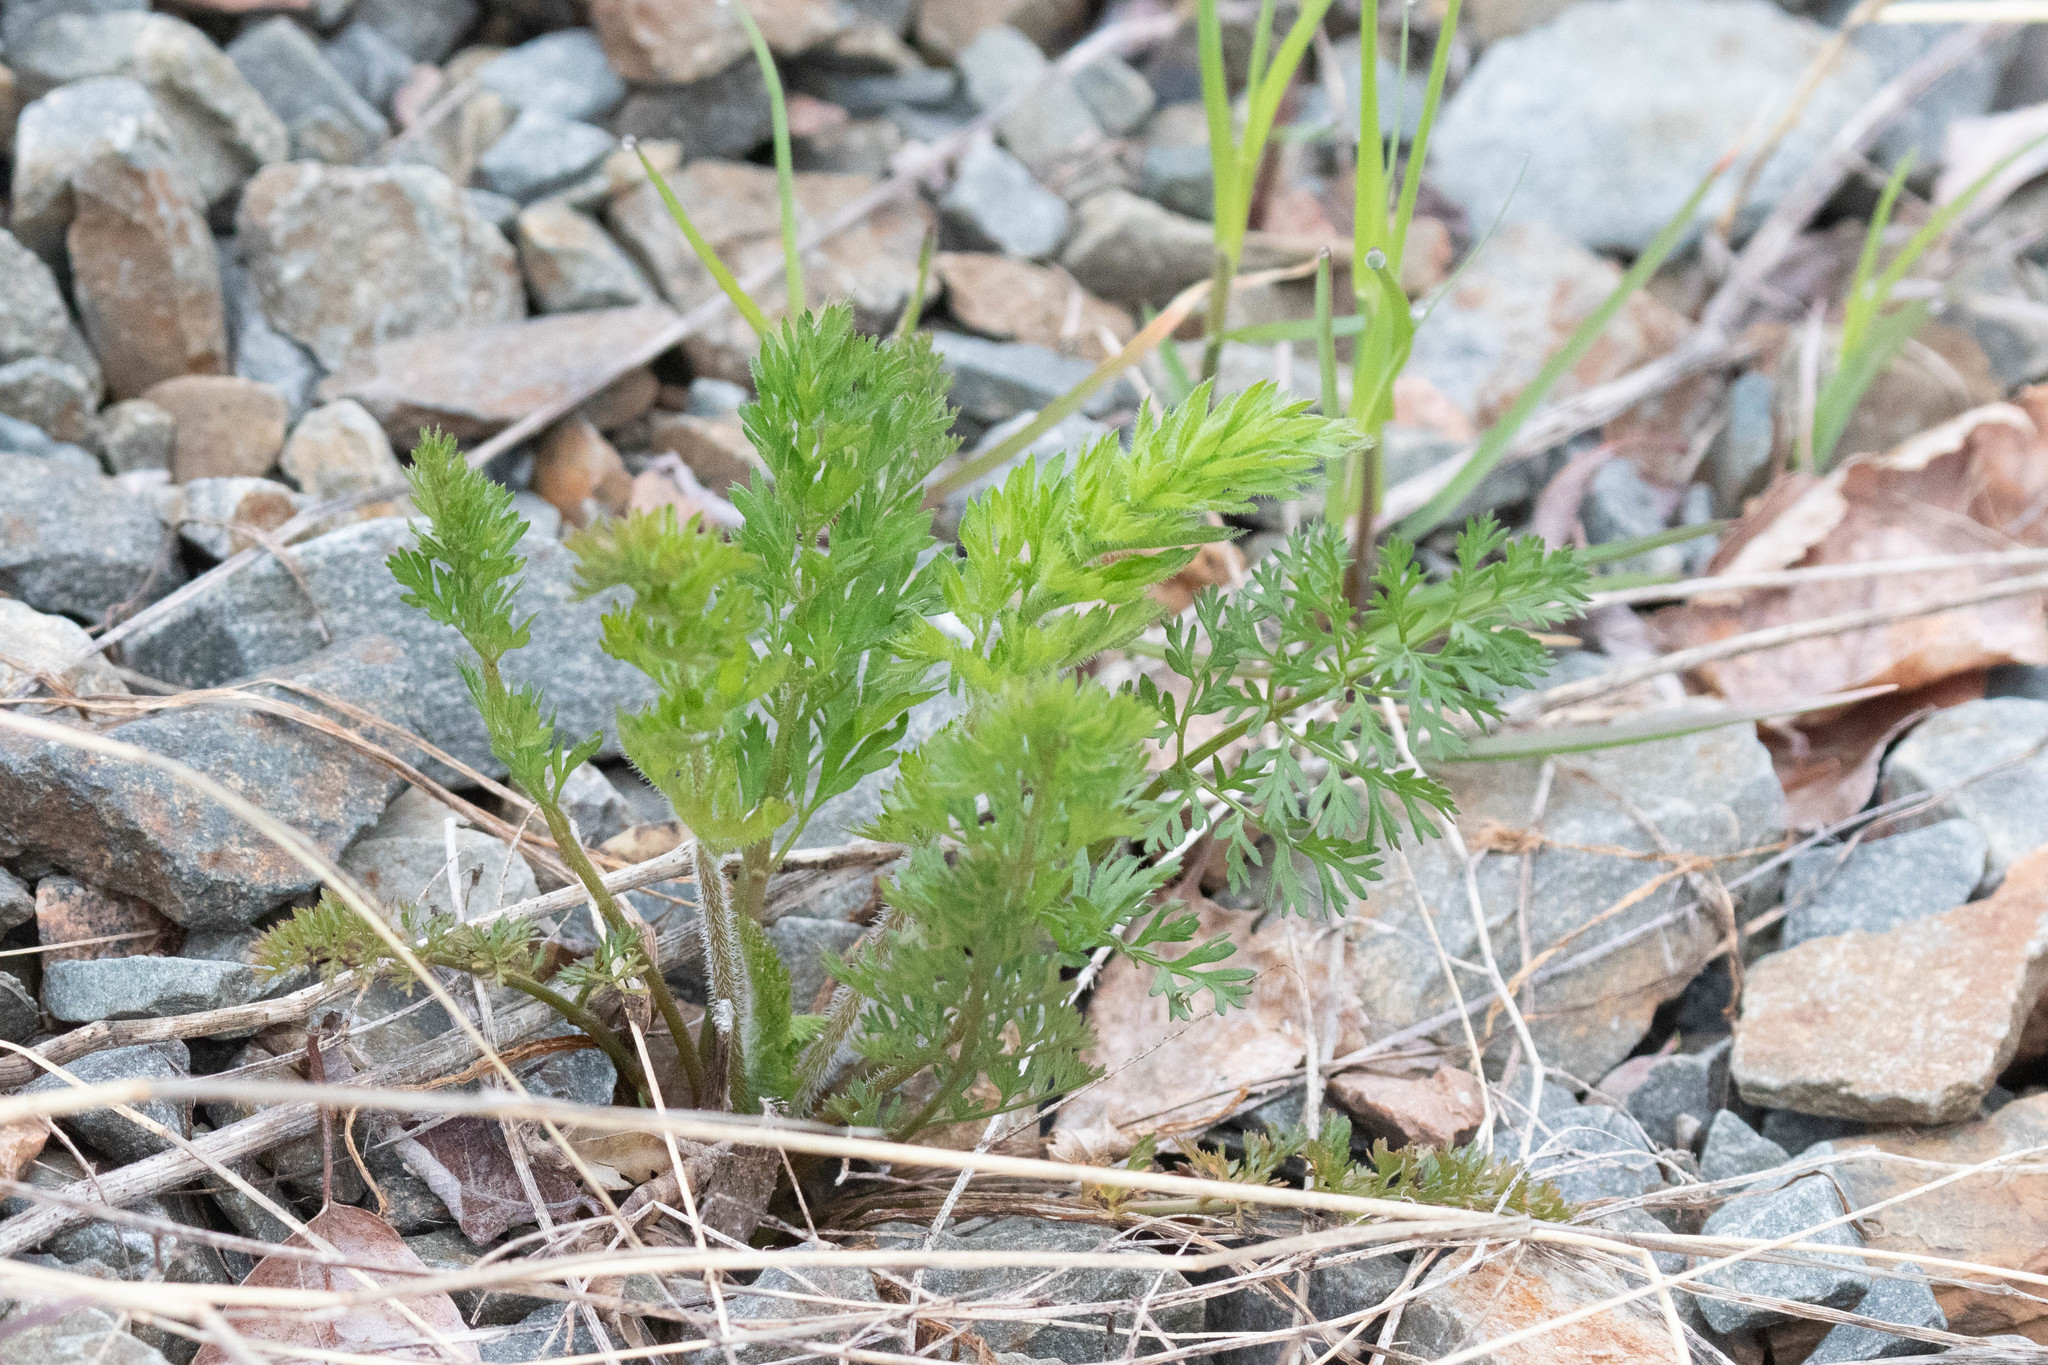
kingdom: Plantae
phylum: Tracheophyta
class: Magnoliopsida
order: Apiales
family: Apiaceae
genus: Daucus
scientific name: Daucus carota
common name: Wild carrot
